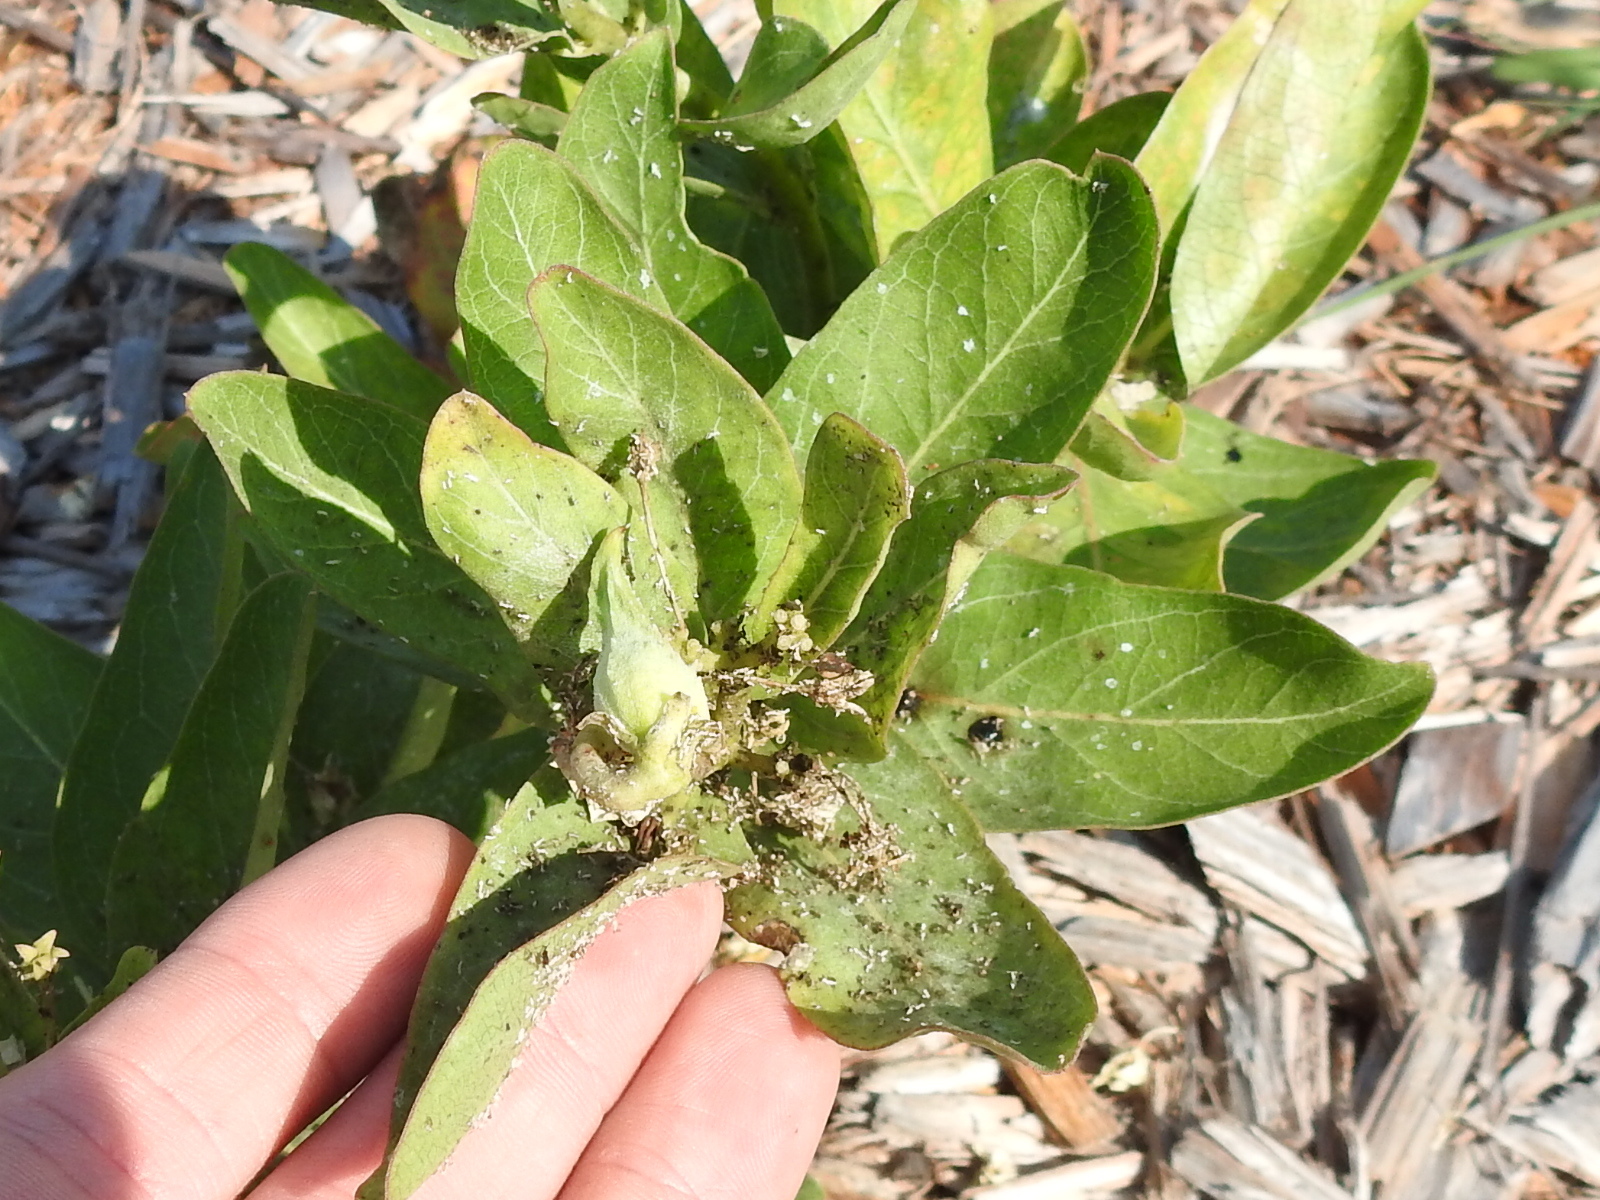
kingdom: Plantae
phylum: Tracheophyta
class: Magnoliopsida
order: Gentianales
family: Apocynaceae
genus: Asclepias
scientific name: Asclepias viridis
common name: Antelope-horns
